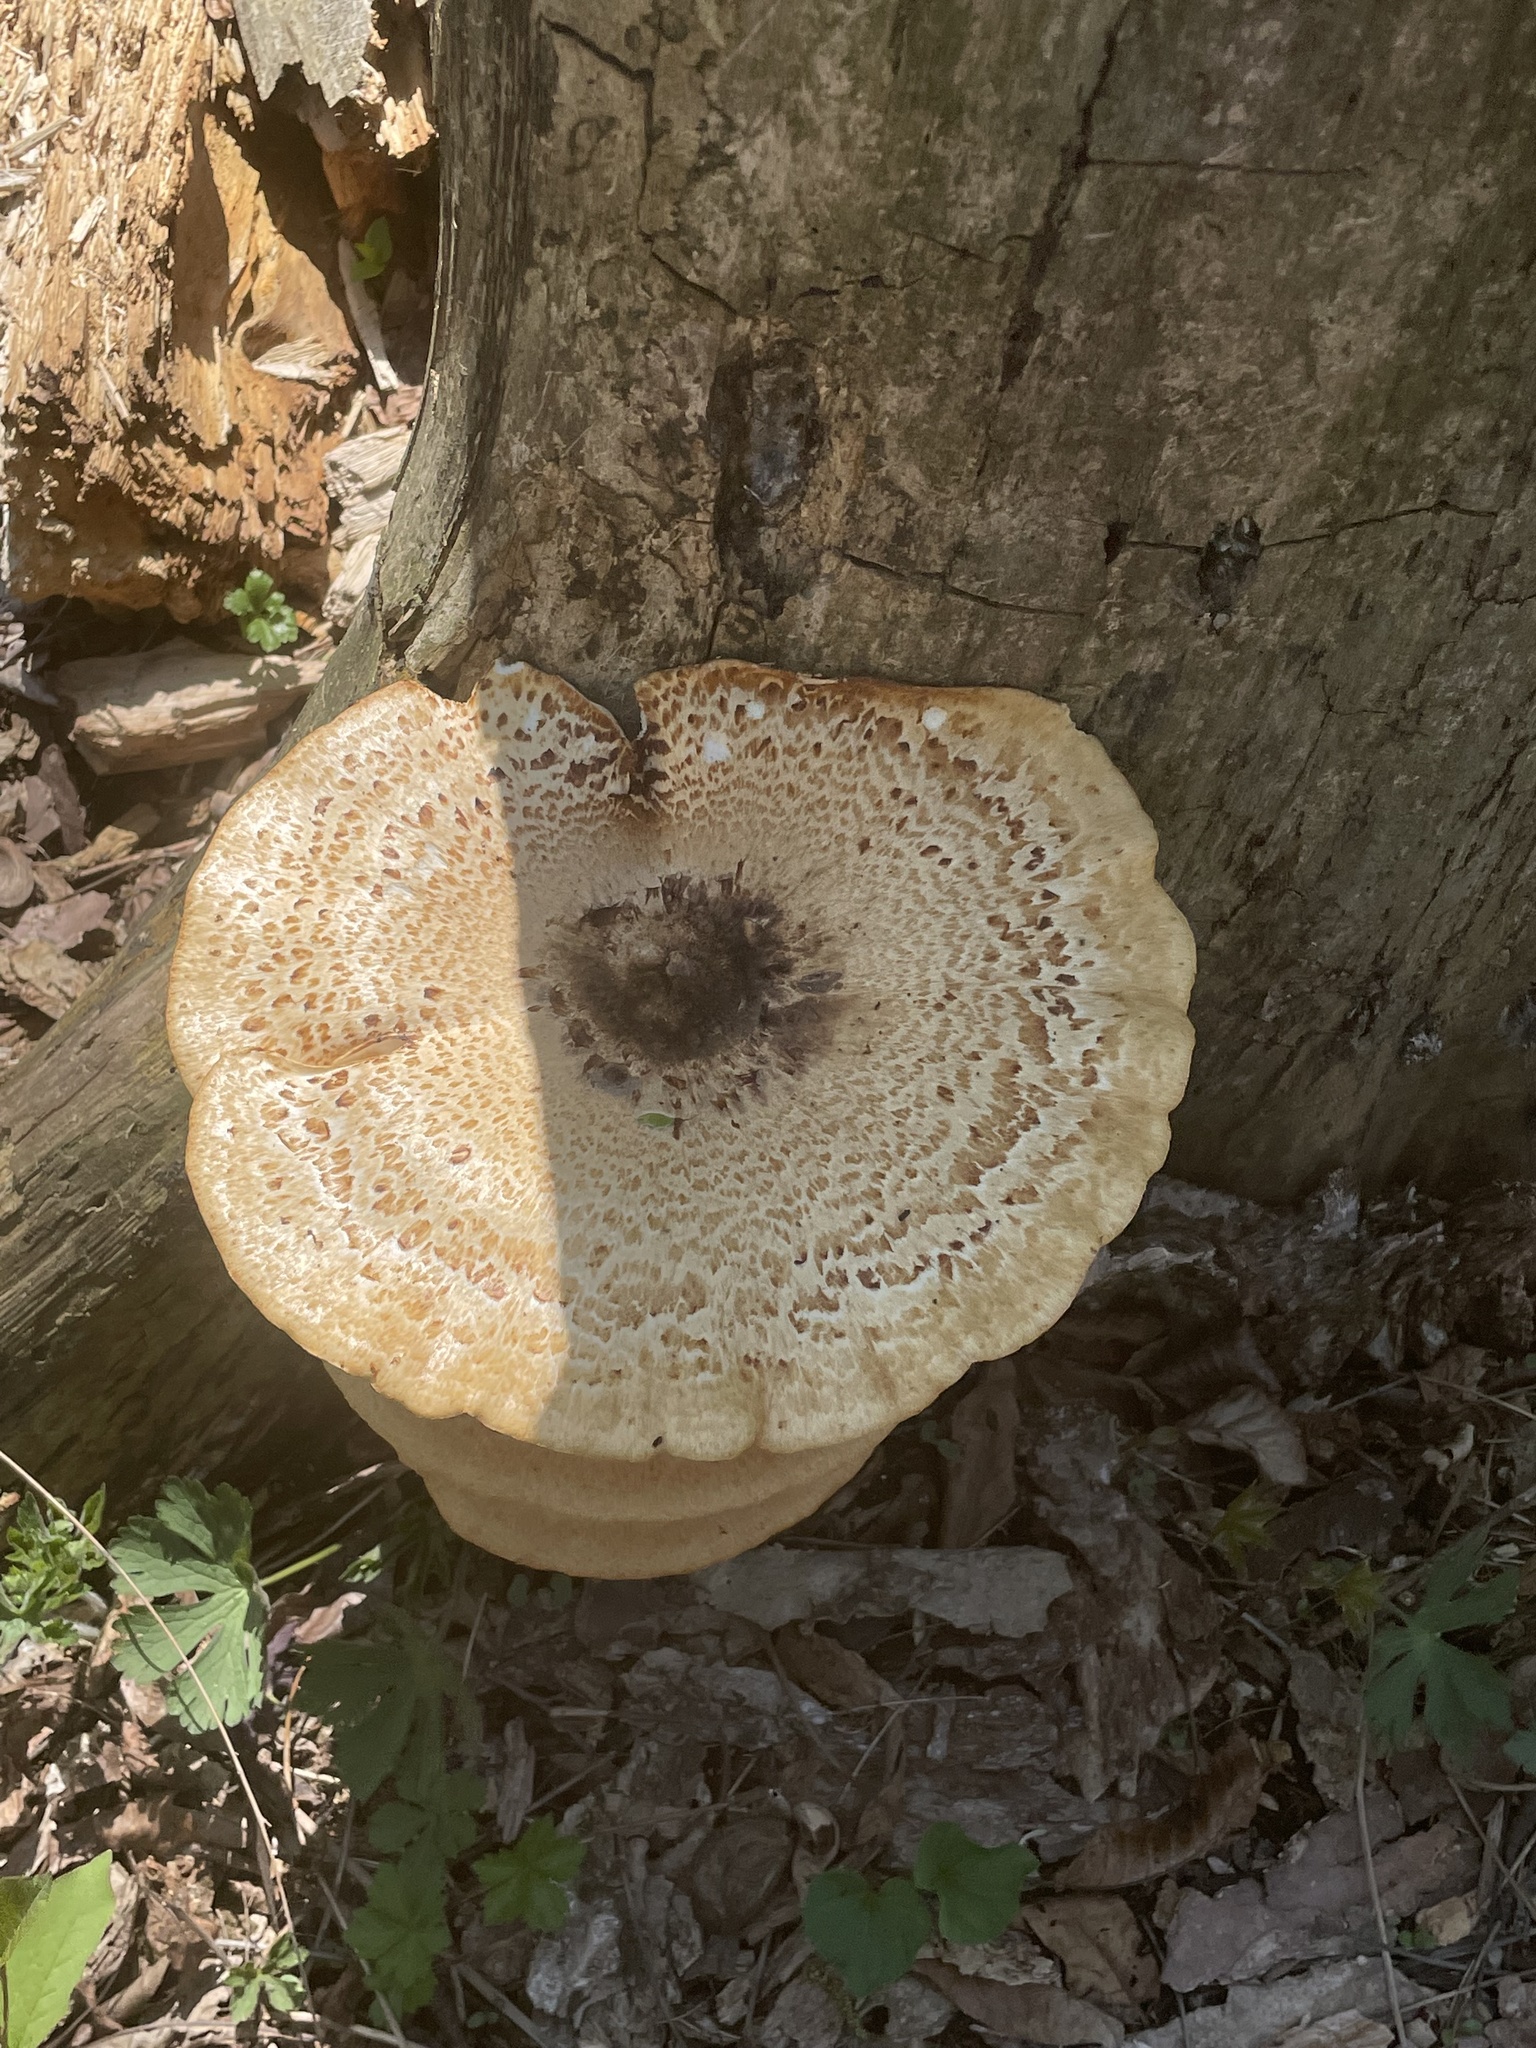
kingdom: Fungi
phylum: Basidiomycota
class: Agaricomycetes
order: Polyporales
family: Polyporaceae
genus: Cerioporus
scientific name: Cerioporus squamosus
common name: Dryad's saddle
